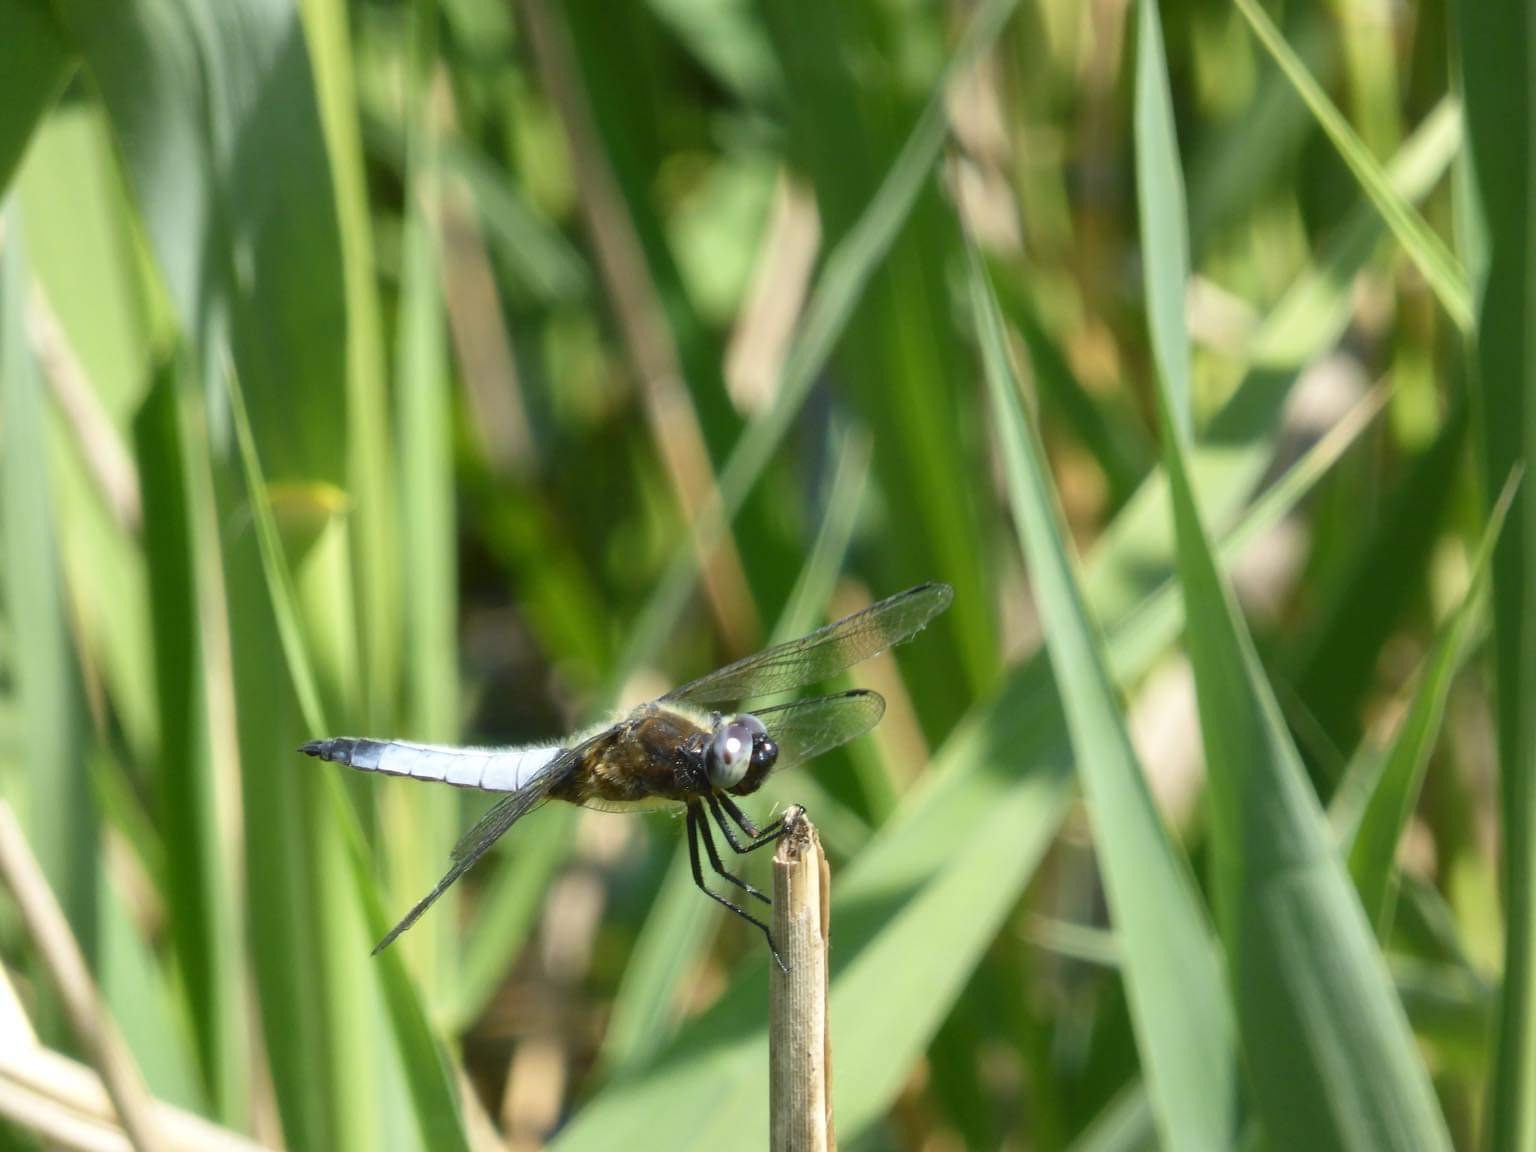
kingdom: Animalia
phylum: Arthropoda
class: Insecta
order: Odonata
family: Libellulidae
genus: Libellula
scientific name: Libellula fulva
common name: Blue chaser
